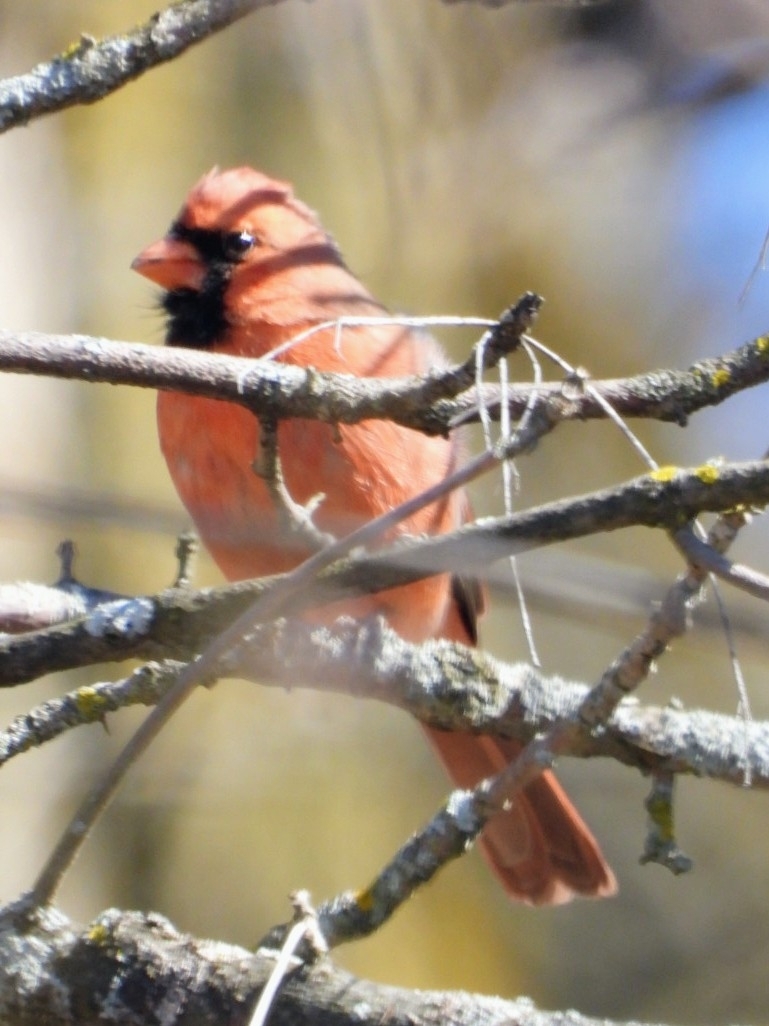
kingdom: Animalia
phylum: Chordata
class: Aves
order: Passeriformes
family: Cardinalidae
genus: Cardinalis
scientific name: Cardinalis cardinalis
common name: Northern cardinal
